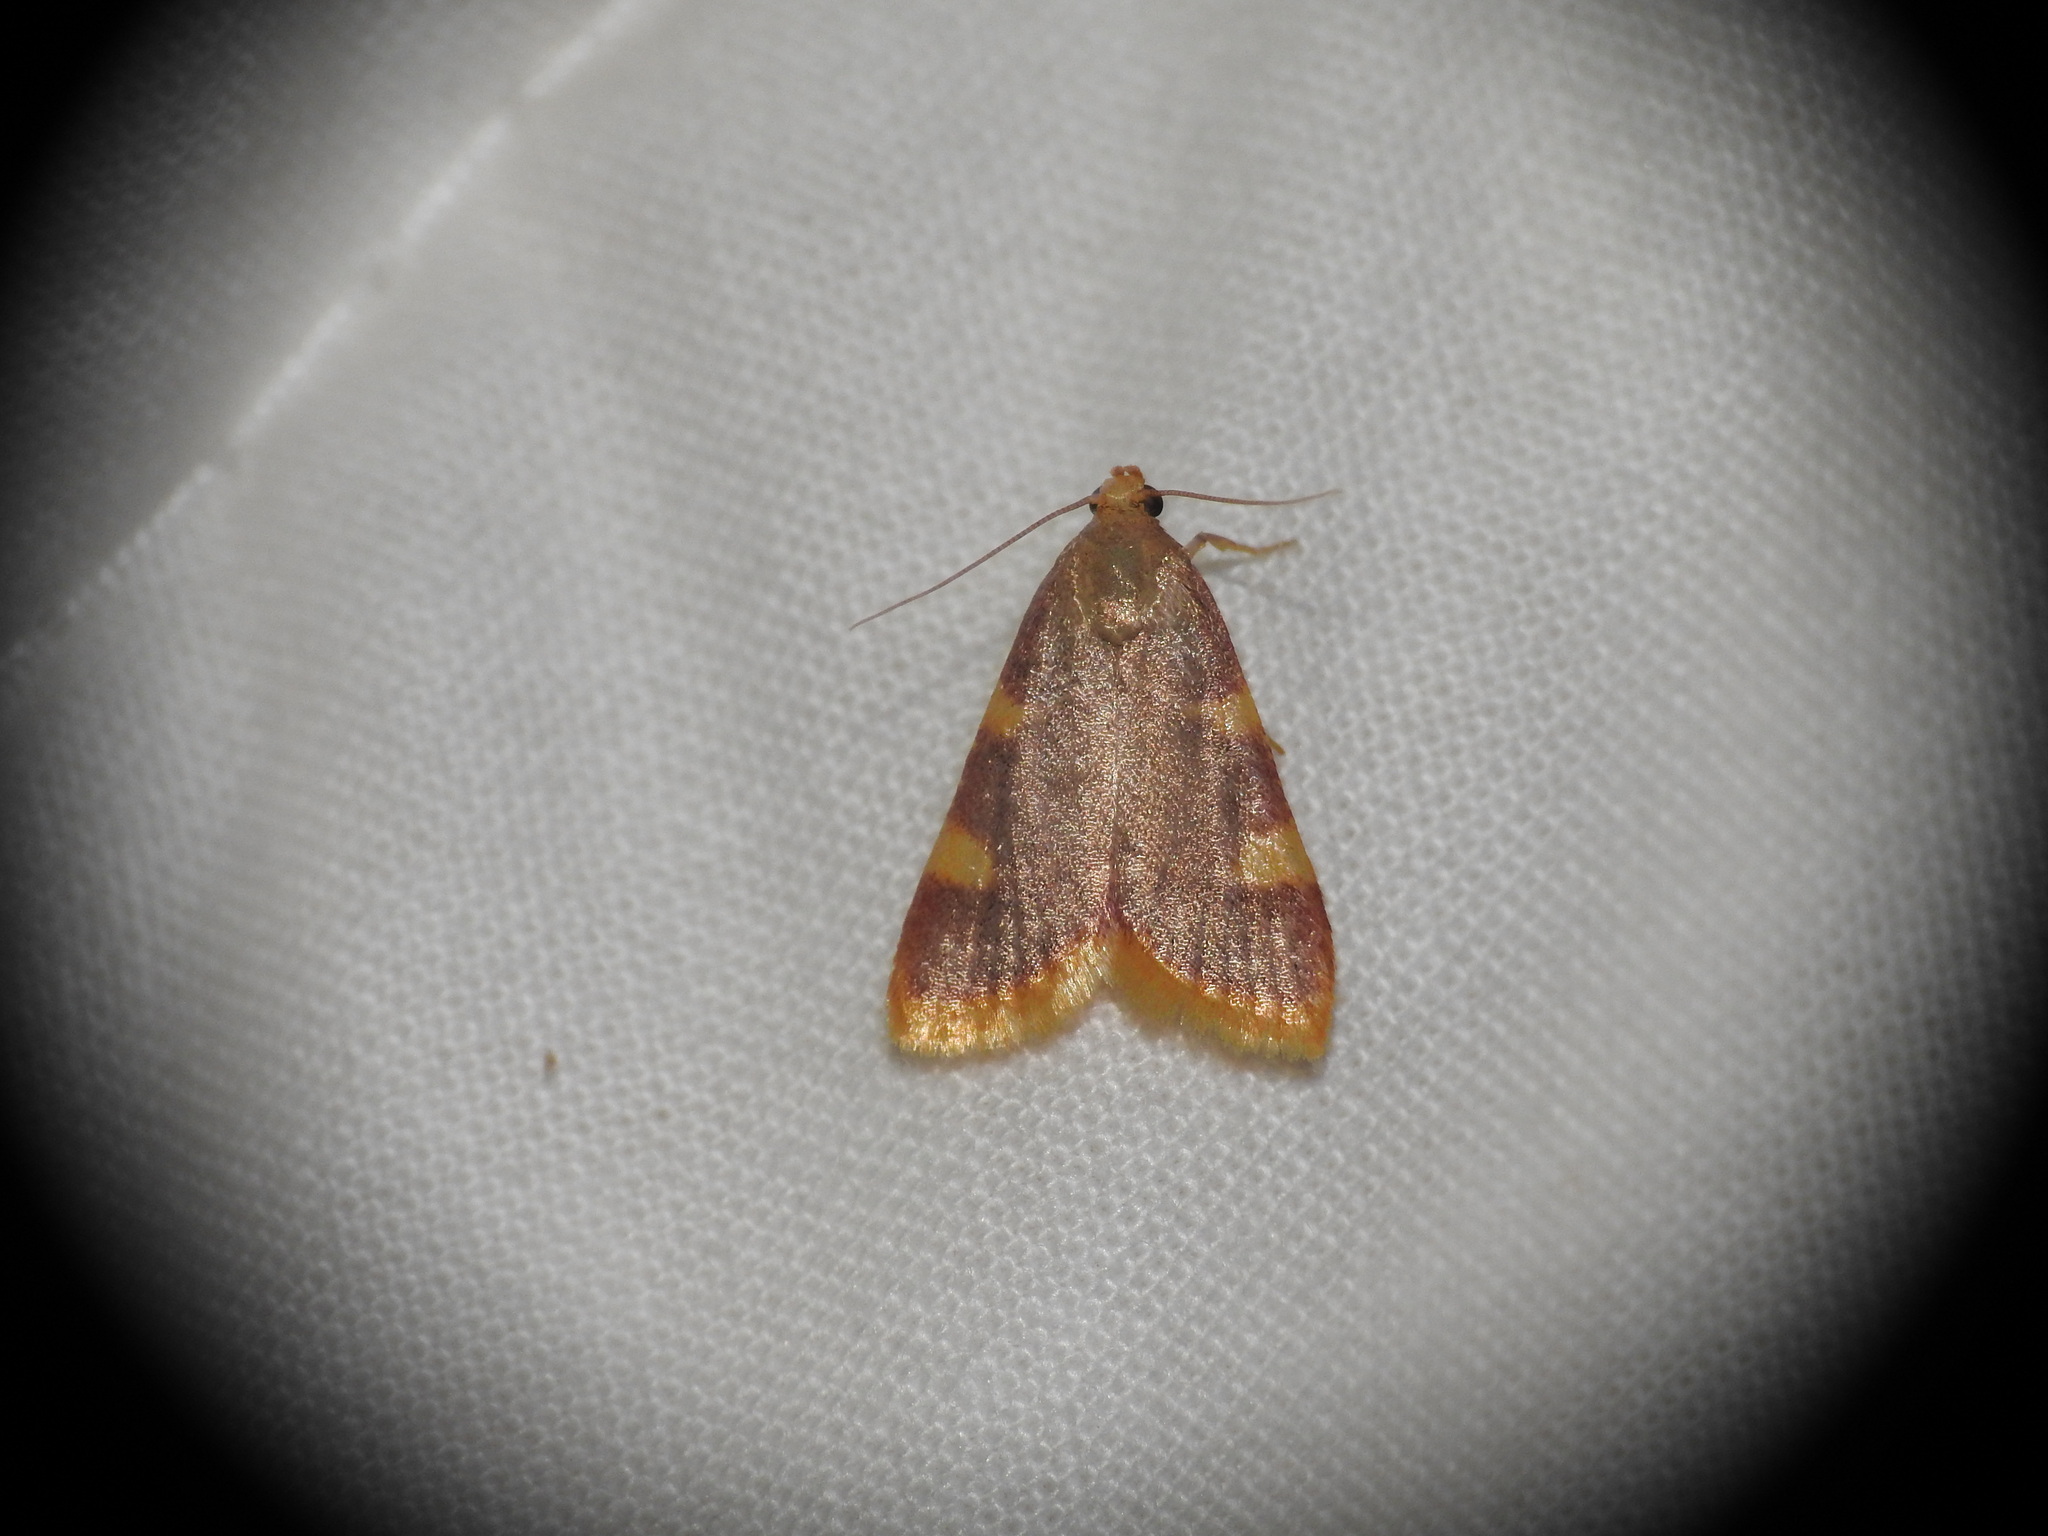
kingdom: Animalia
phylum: Arthropoda
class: Insecta
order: Lepidoptera
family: Pyralidae
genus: Hypsopygia
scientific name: Hypsopygia costalis
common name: Gold triangle
